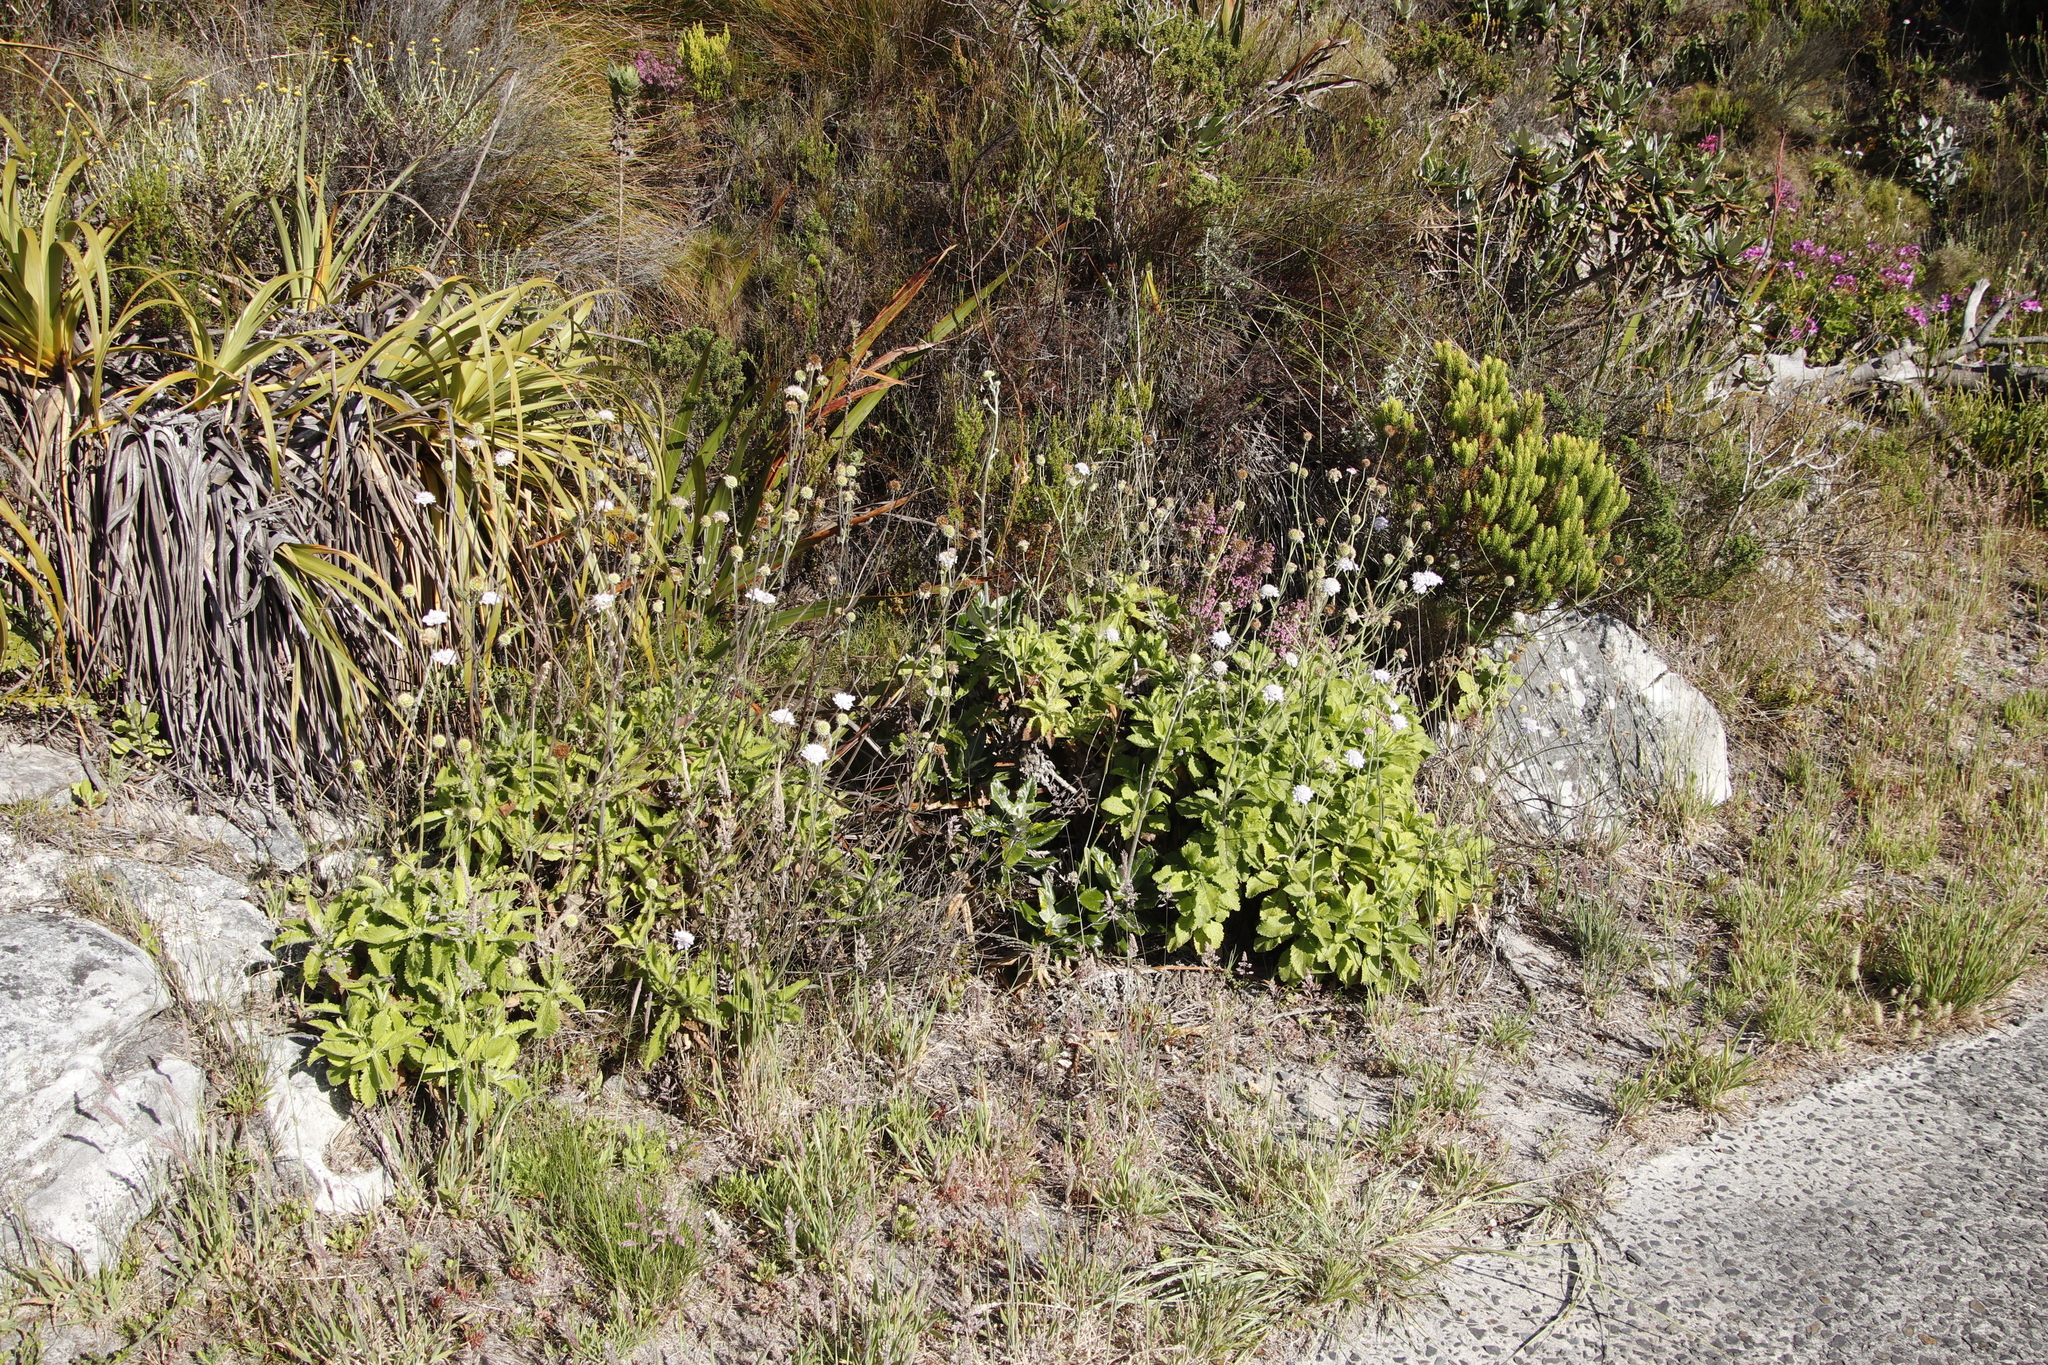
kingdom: Plantae
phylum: Tracheophyta
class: Magnoliopsida
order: Dipsacales
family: Caprifoliaceae
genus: Scabiosa
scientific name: Scabiosa africana
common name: Cape scabious
